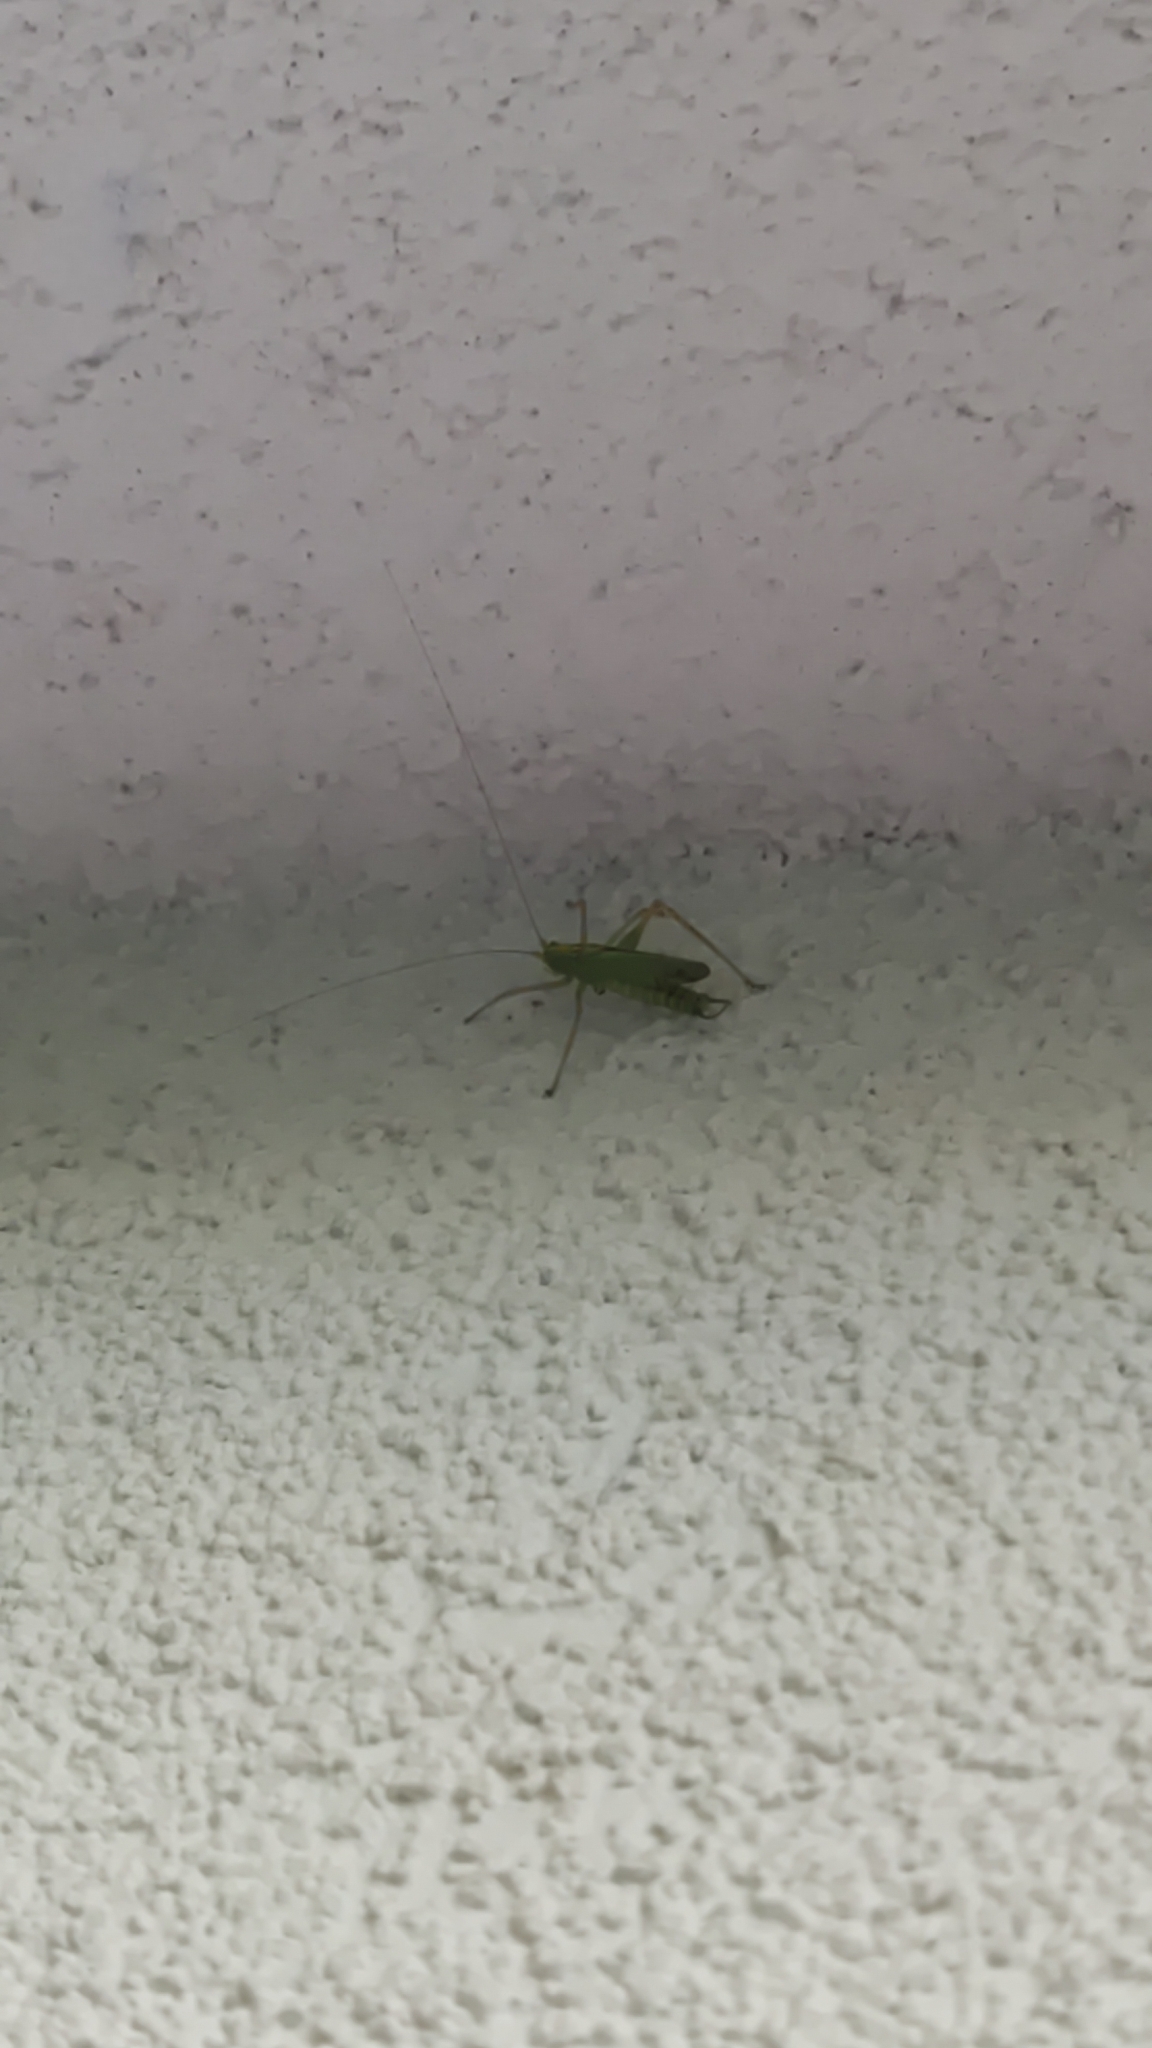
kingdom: Animalia
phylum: Arthropoda
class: Insecta
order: Orthoptera
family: Tettigoniidae
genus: Meconema
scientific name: Meconema thalassinum
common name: Oak bush-cricket
